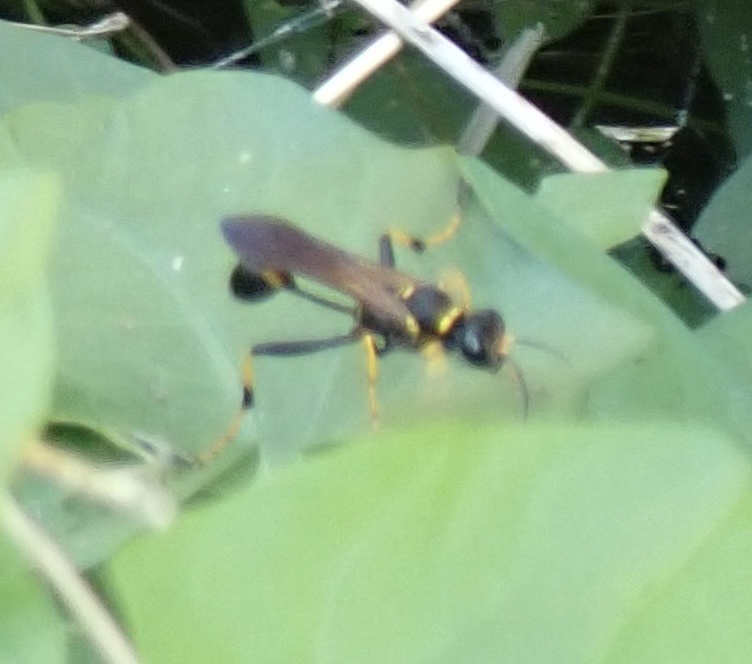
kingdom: Animalia
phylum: Arthropoda
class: Insecta
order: Hymenoptera
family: Sphecidae
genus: Sceliphron
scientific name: Sceliphron caementarium
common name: Mud dauber
